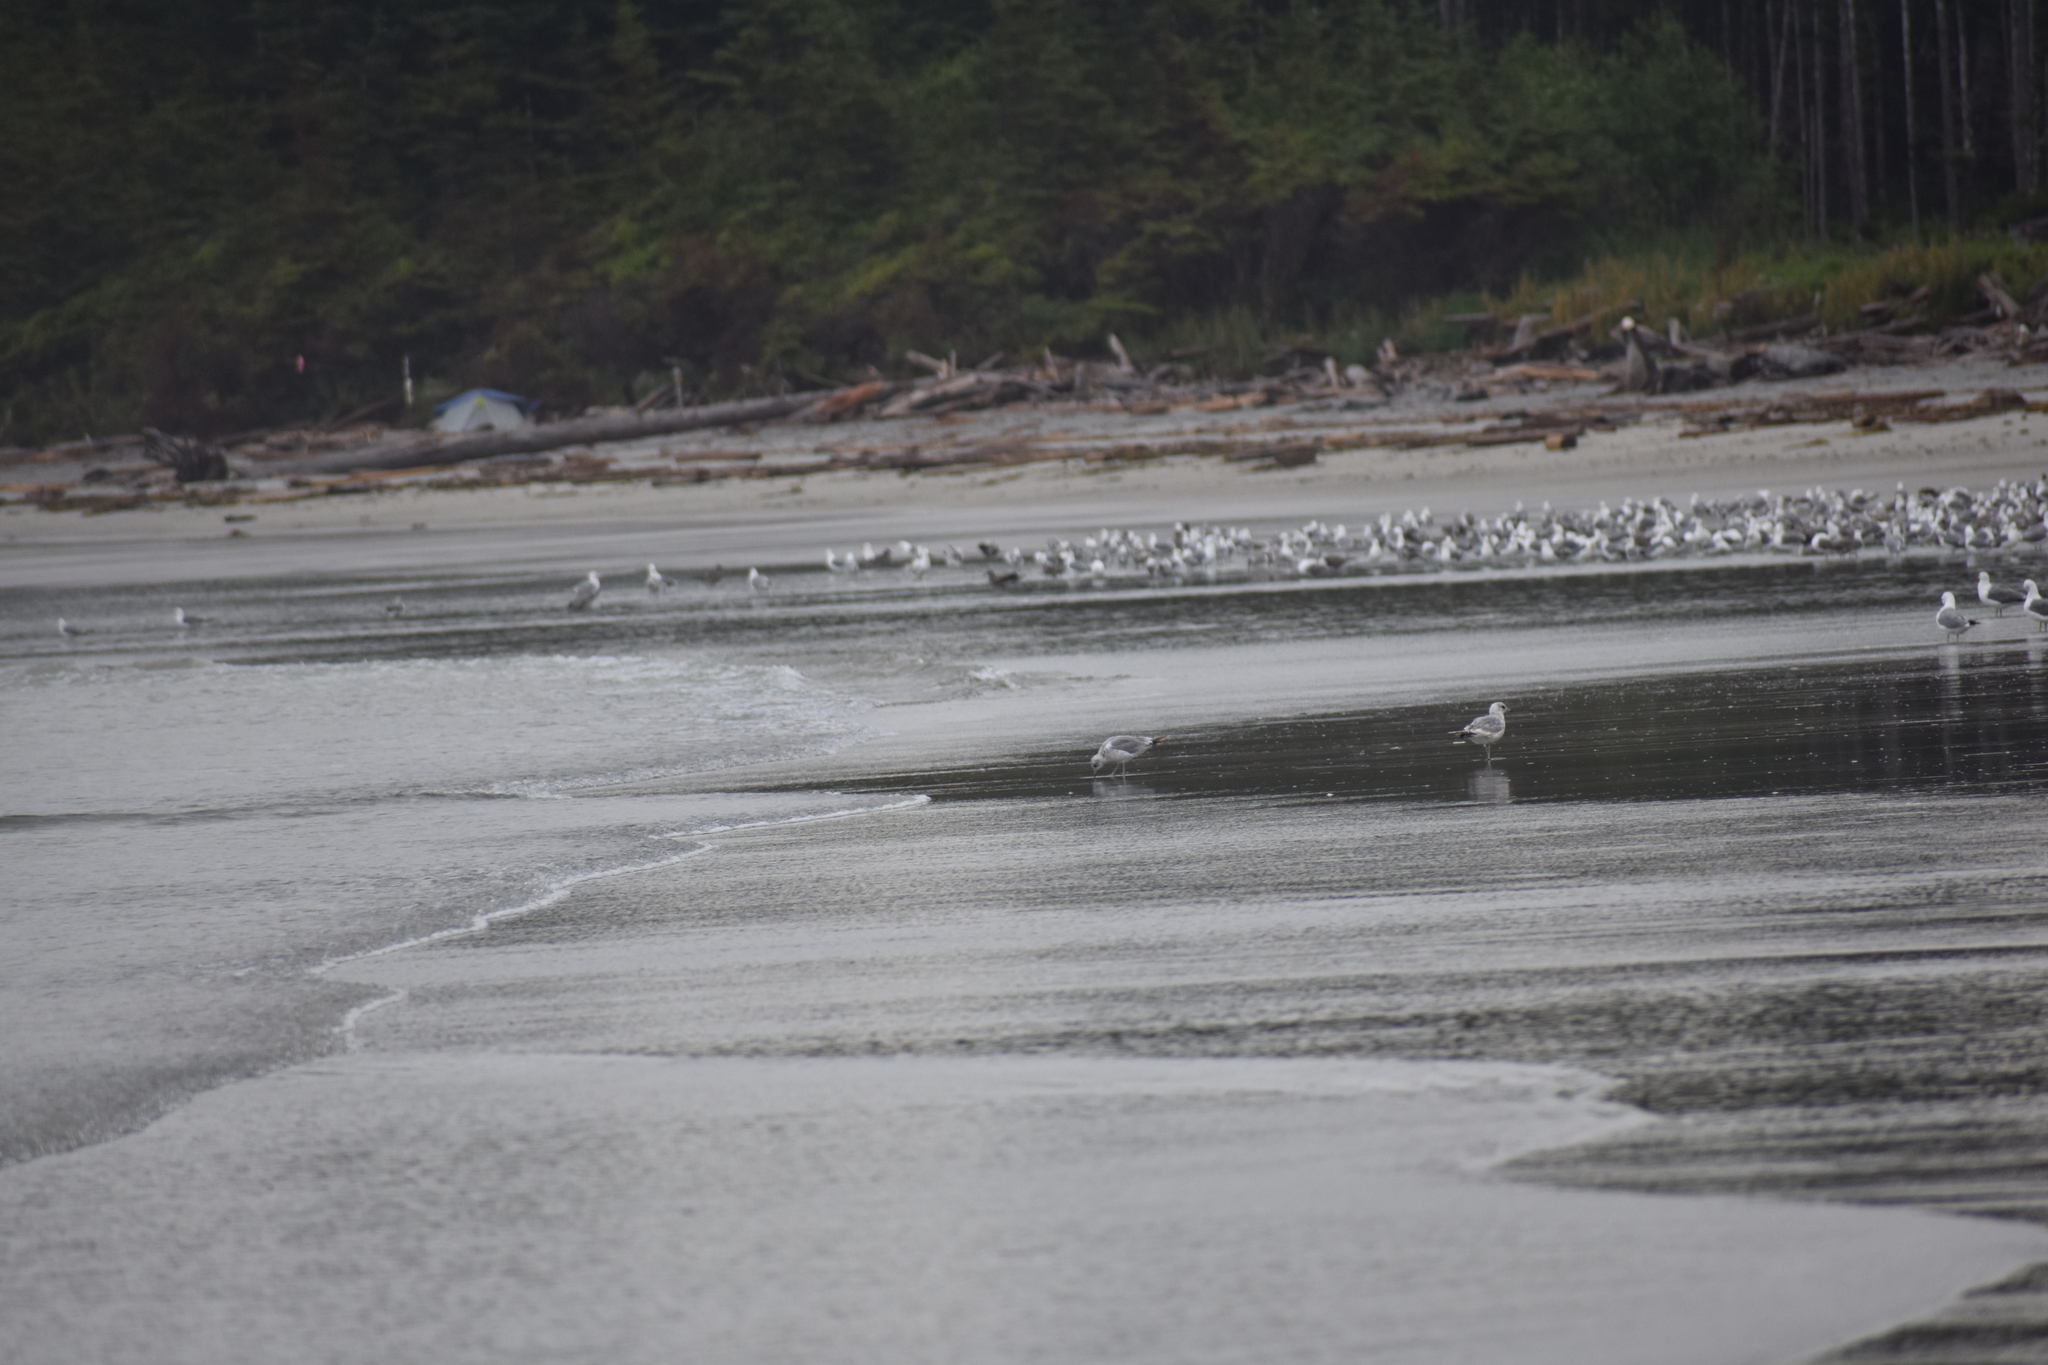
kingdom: Animalia
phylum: Chordata
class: Aves
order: Charadriiformes
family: Laridae
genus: Larus
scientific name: Larus brachyrhynchus
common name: Short-billed gull
